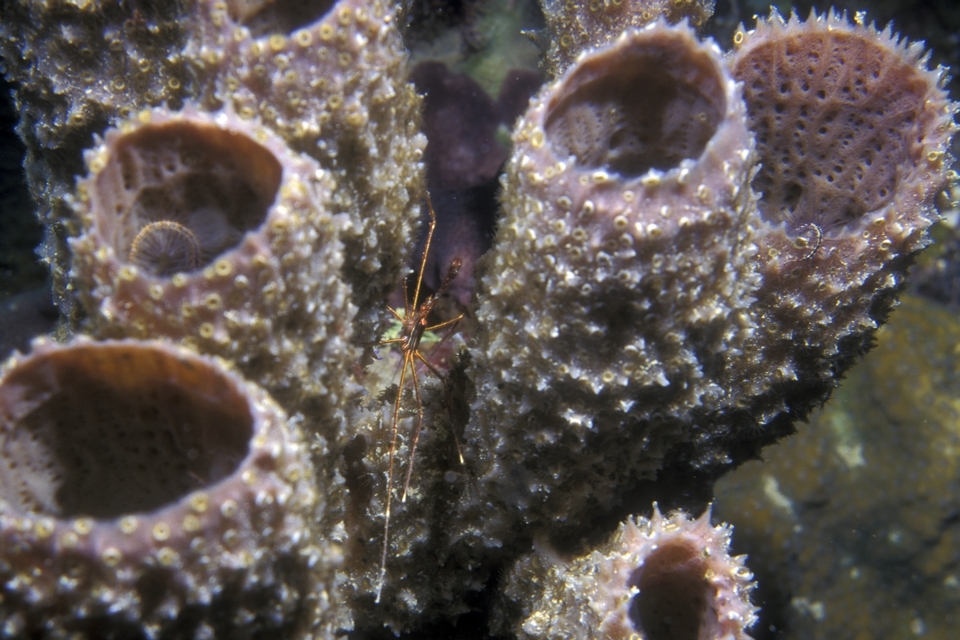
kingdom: Animalia
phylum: Arthropoda
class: Malacostraca
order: Decapoda
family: Inachoididae
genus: Stenorhynchus
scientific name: Stenorhynchus seticornis
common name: Arrow crab
